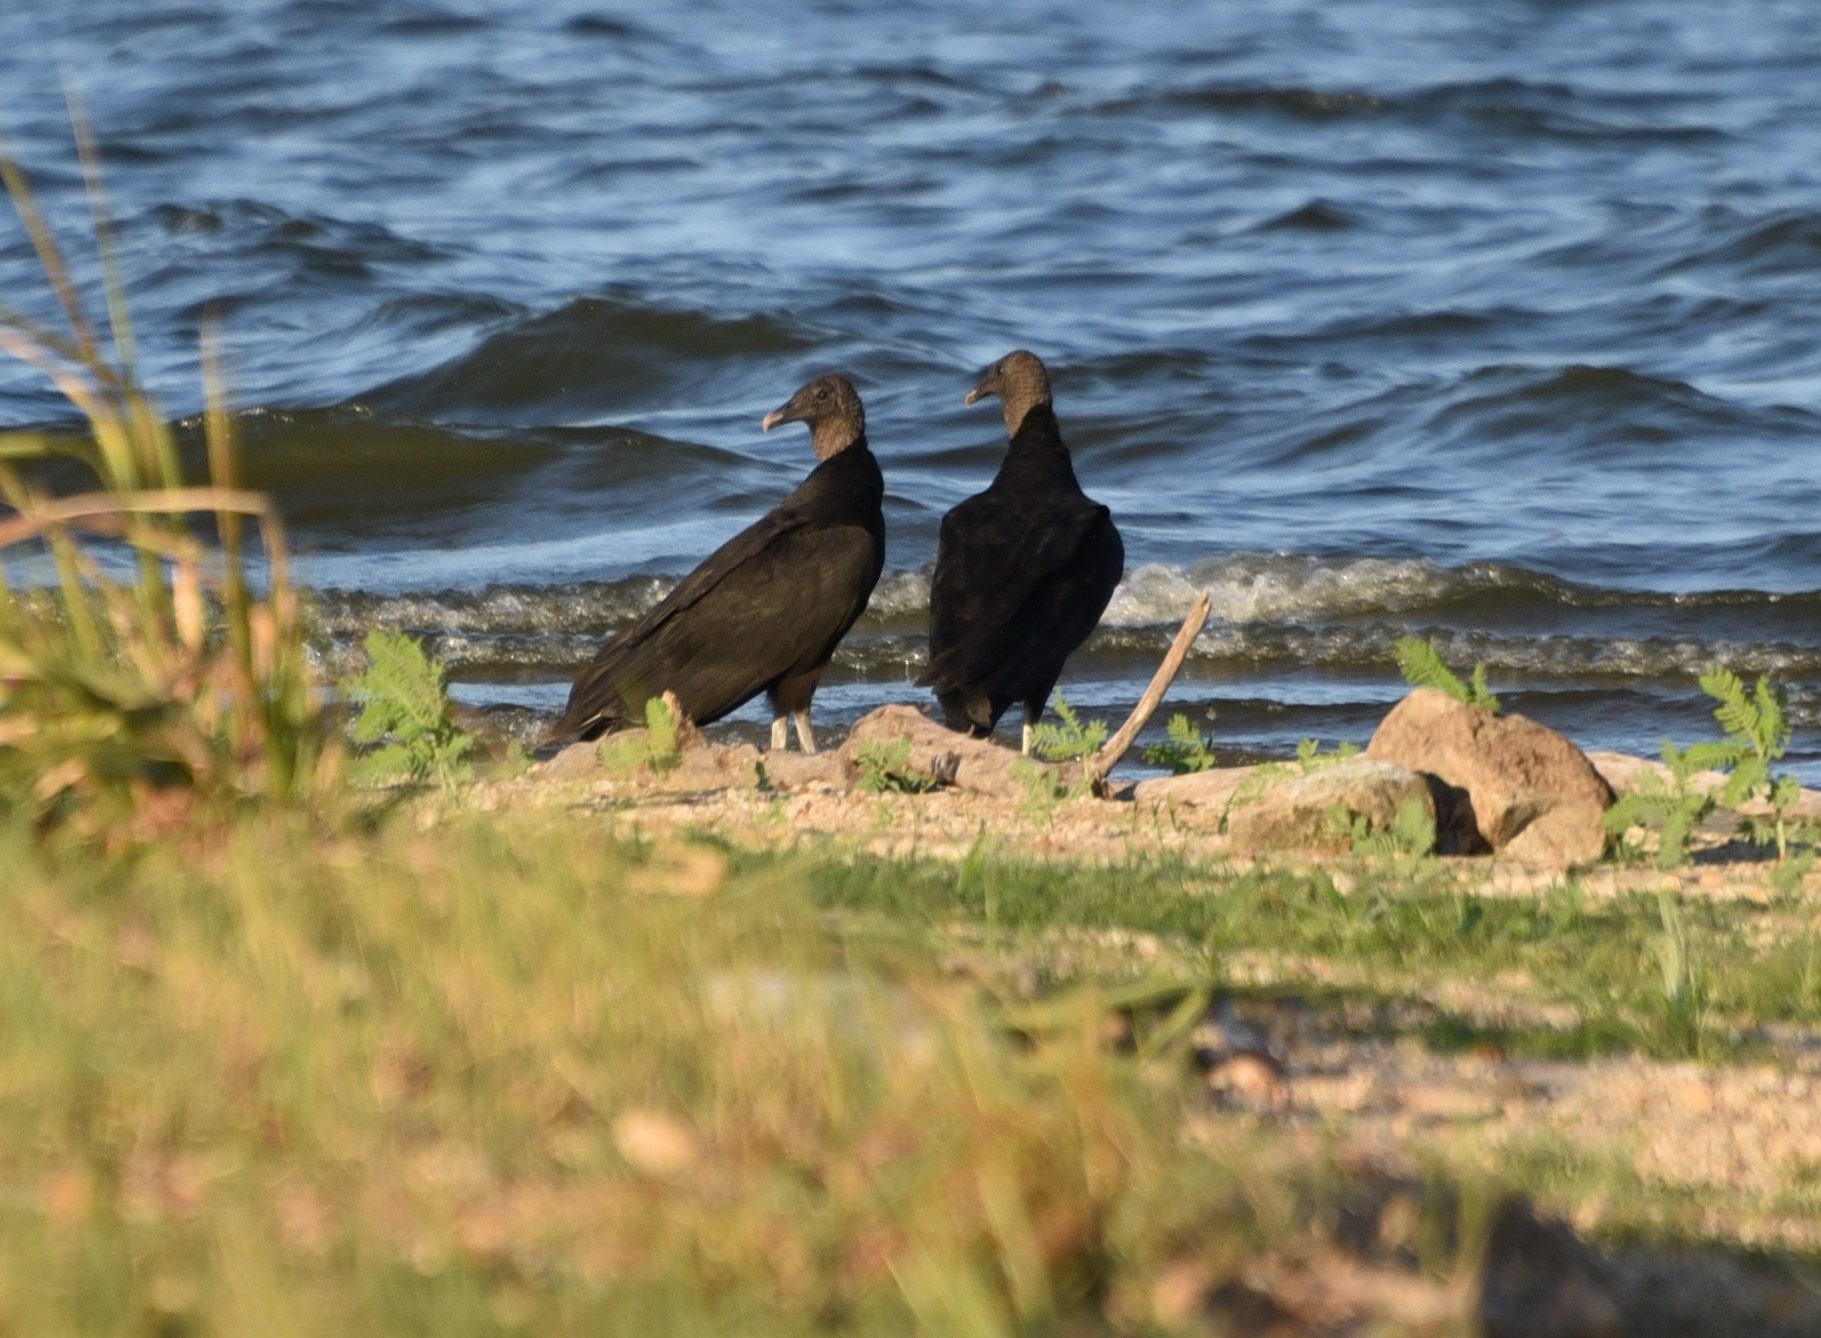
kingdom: Animalia
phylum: Chordata
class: Aves
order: Accipitriformes
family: Cathartidae
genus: Coragyps
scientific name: Coragyps atratus
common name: Black vulture
